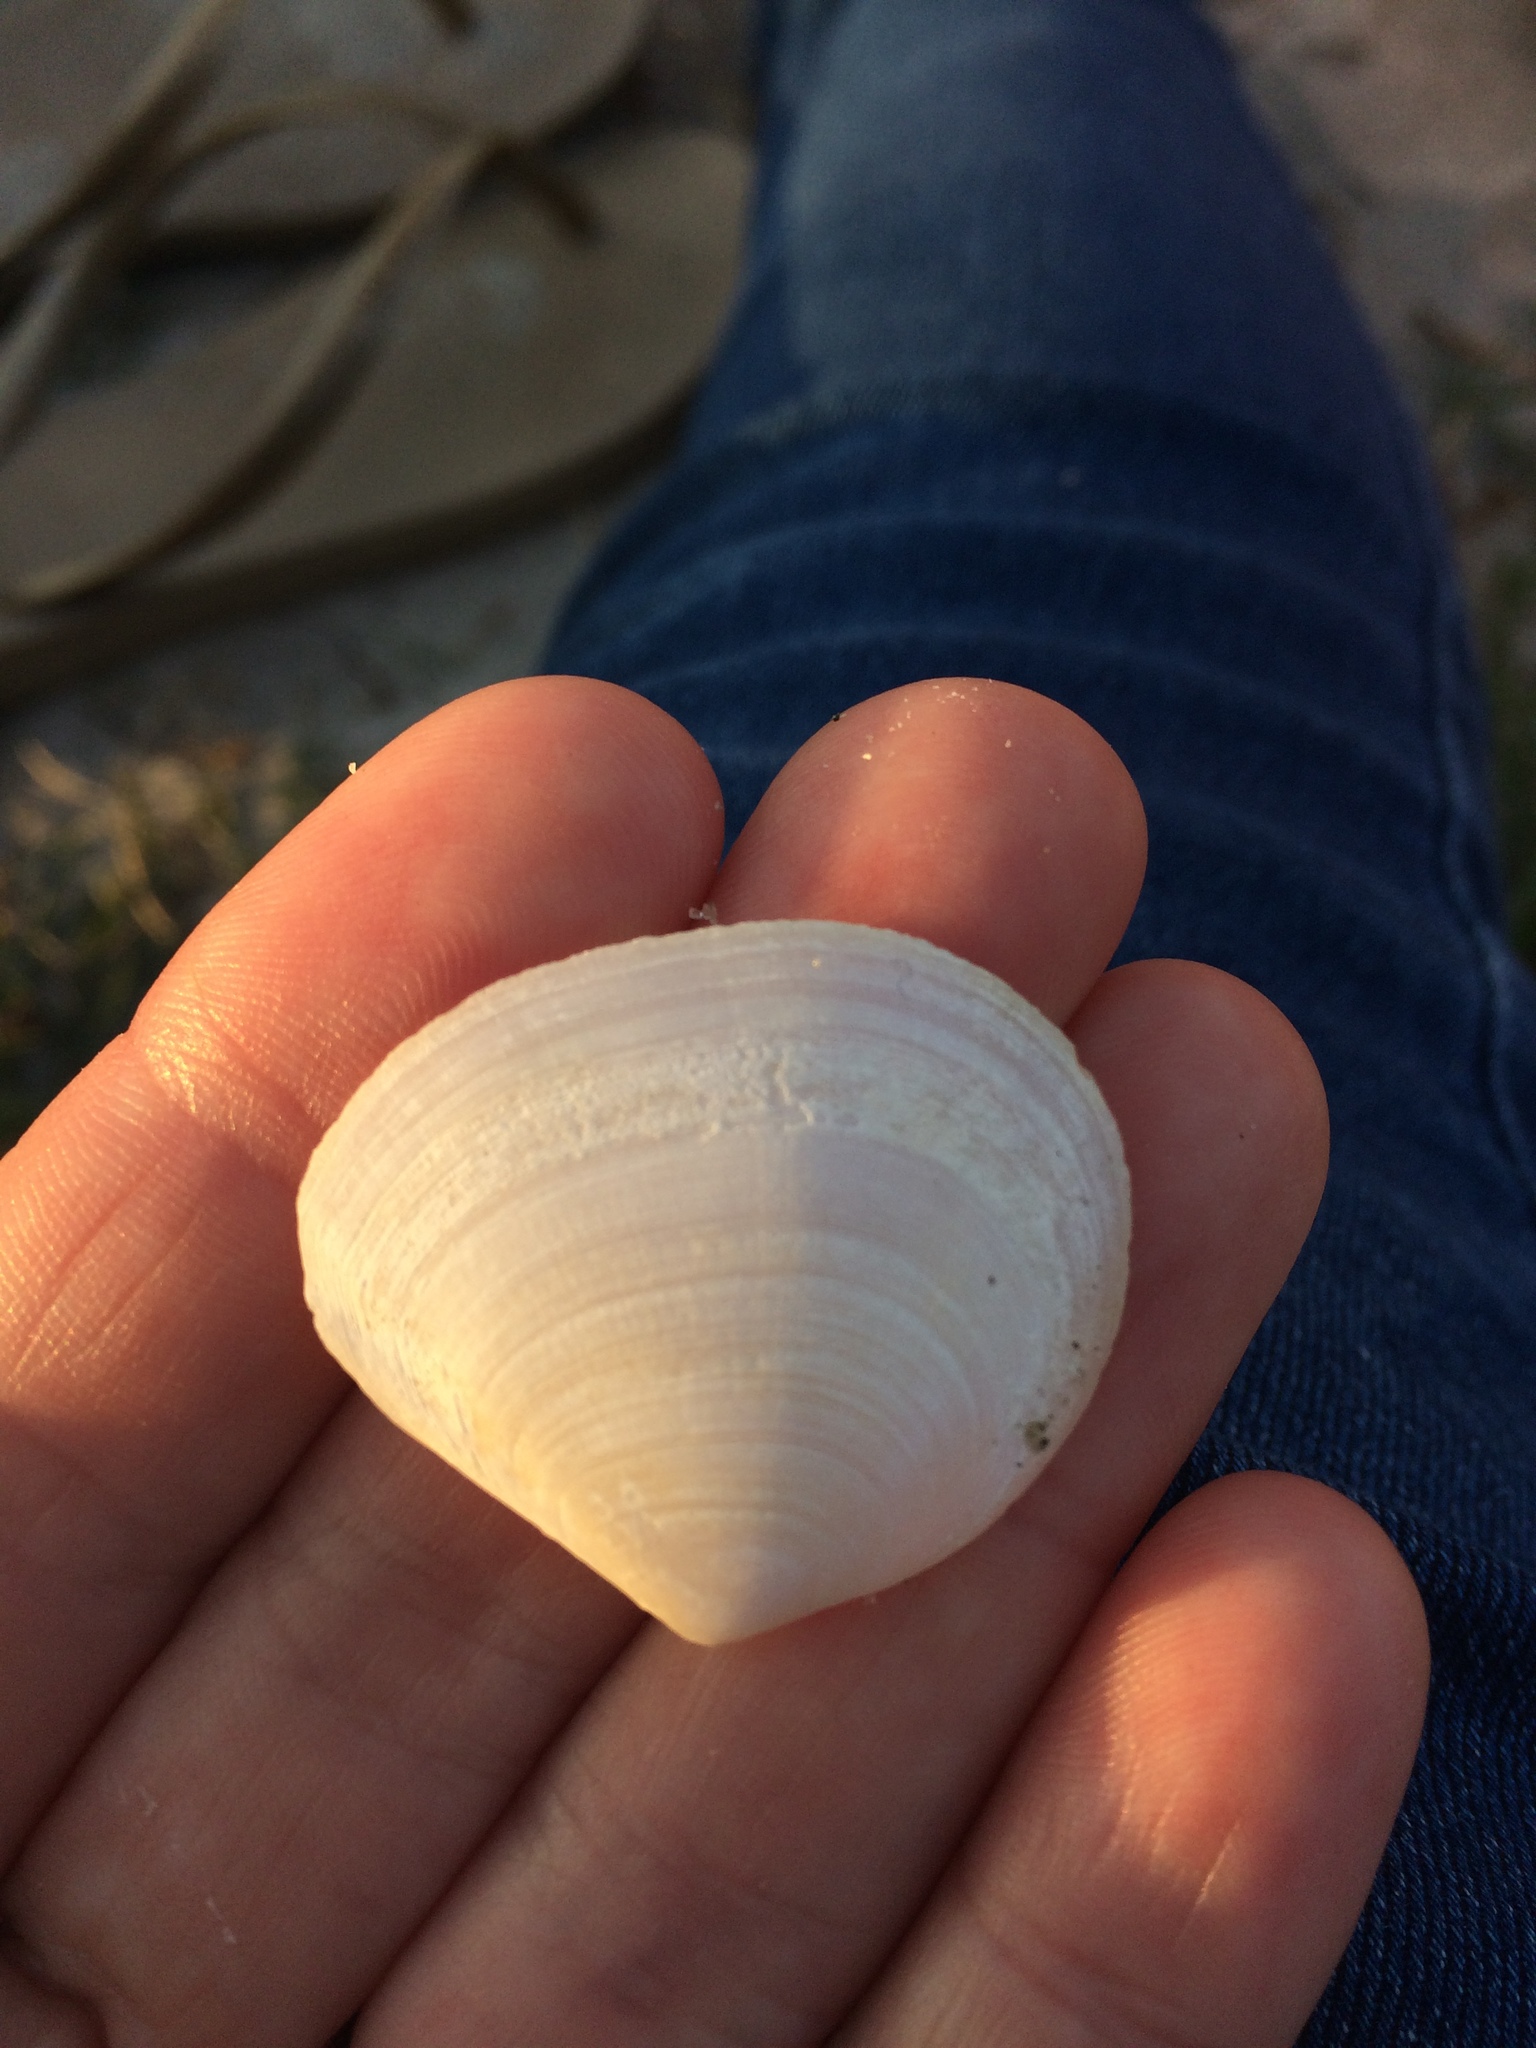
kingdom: Animalia
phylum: Mollusca
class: Bivalvia
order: Cardiida
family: Tellinidae
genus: Macomona
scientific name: Macomona liliana
